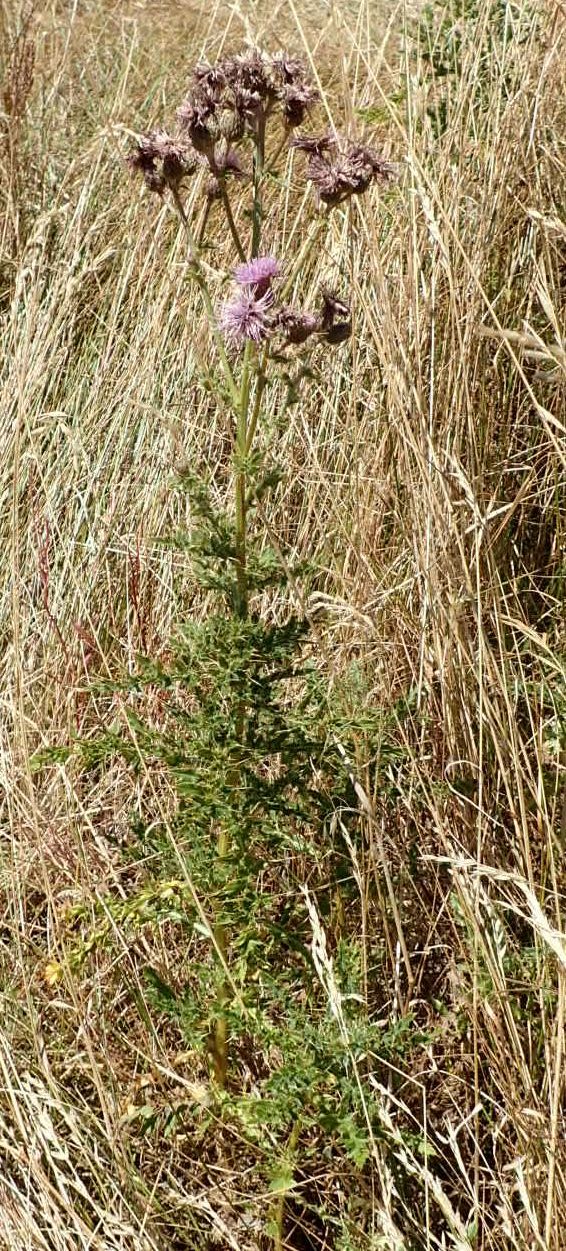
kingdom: Plantae
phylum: Tracheophyta
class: Magnoliopsida
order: Asterales
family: Asteraceae
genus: Cirsium
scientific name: Cirsium arvense
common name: Creeping thistle
